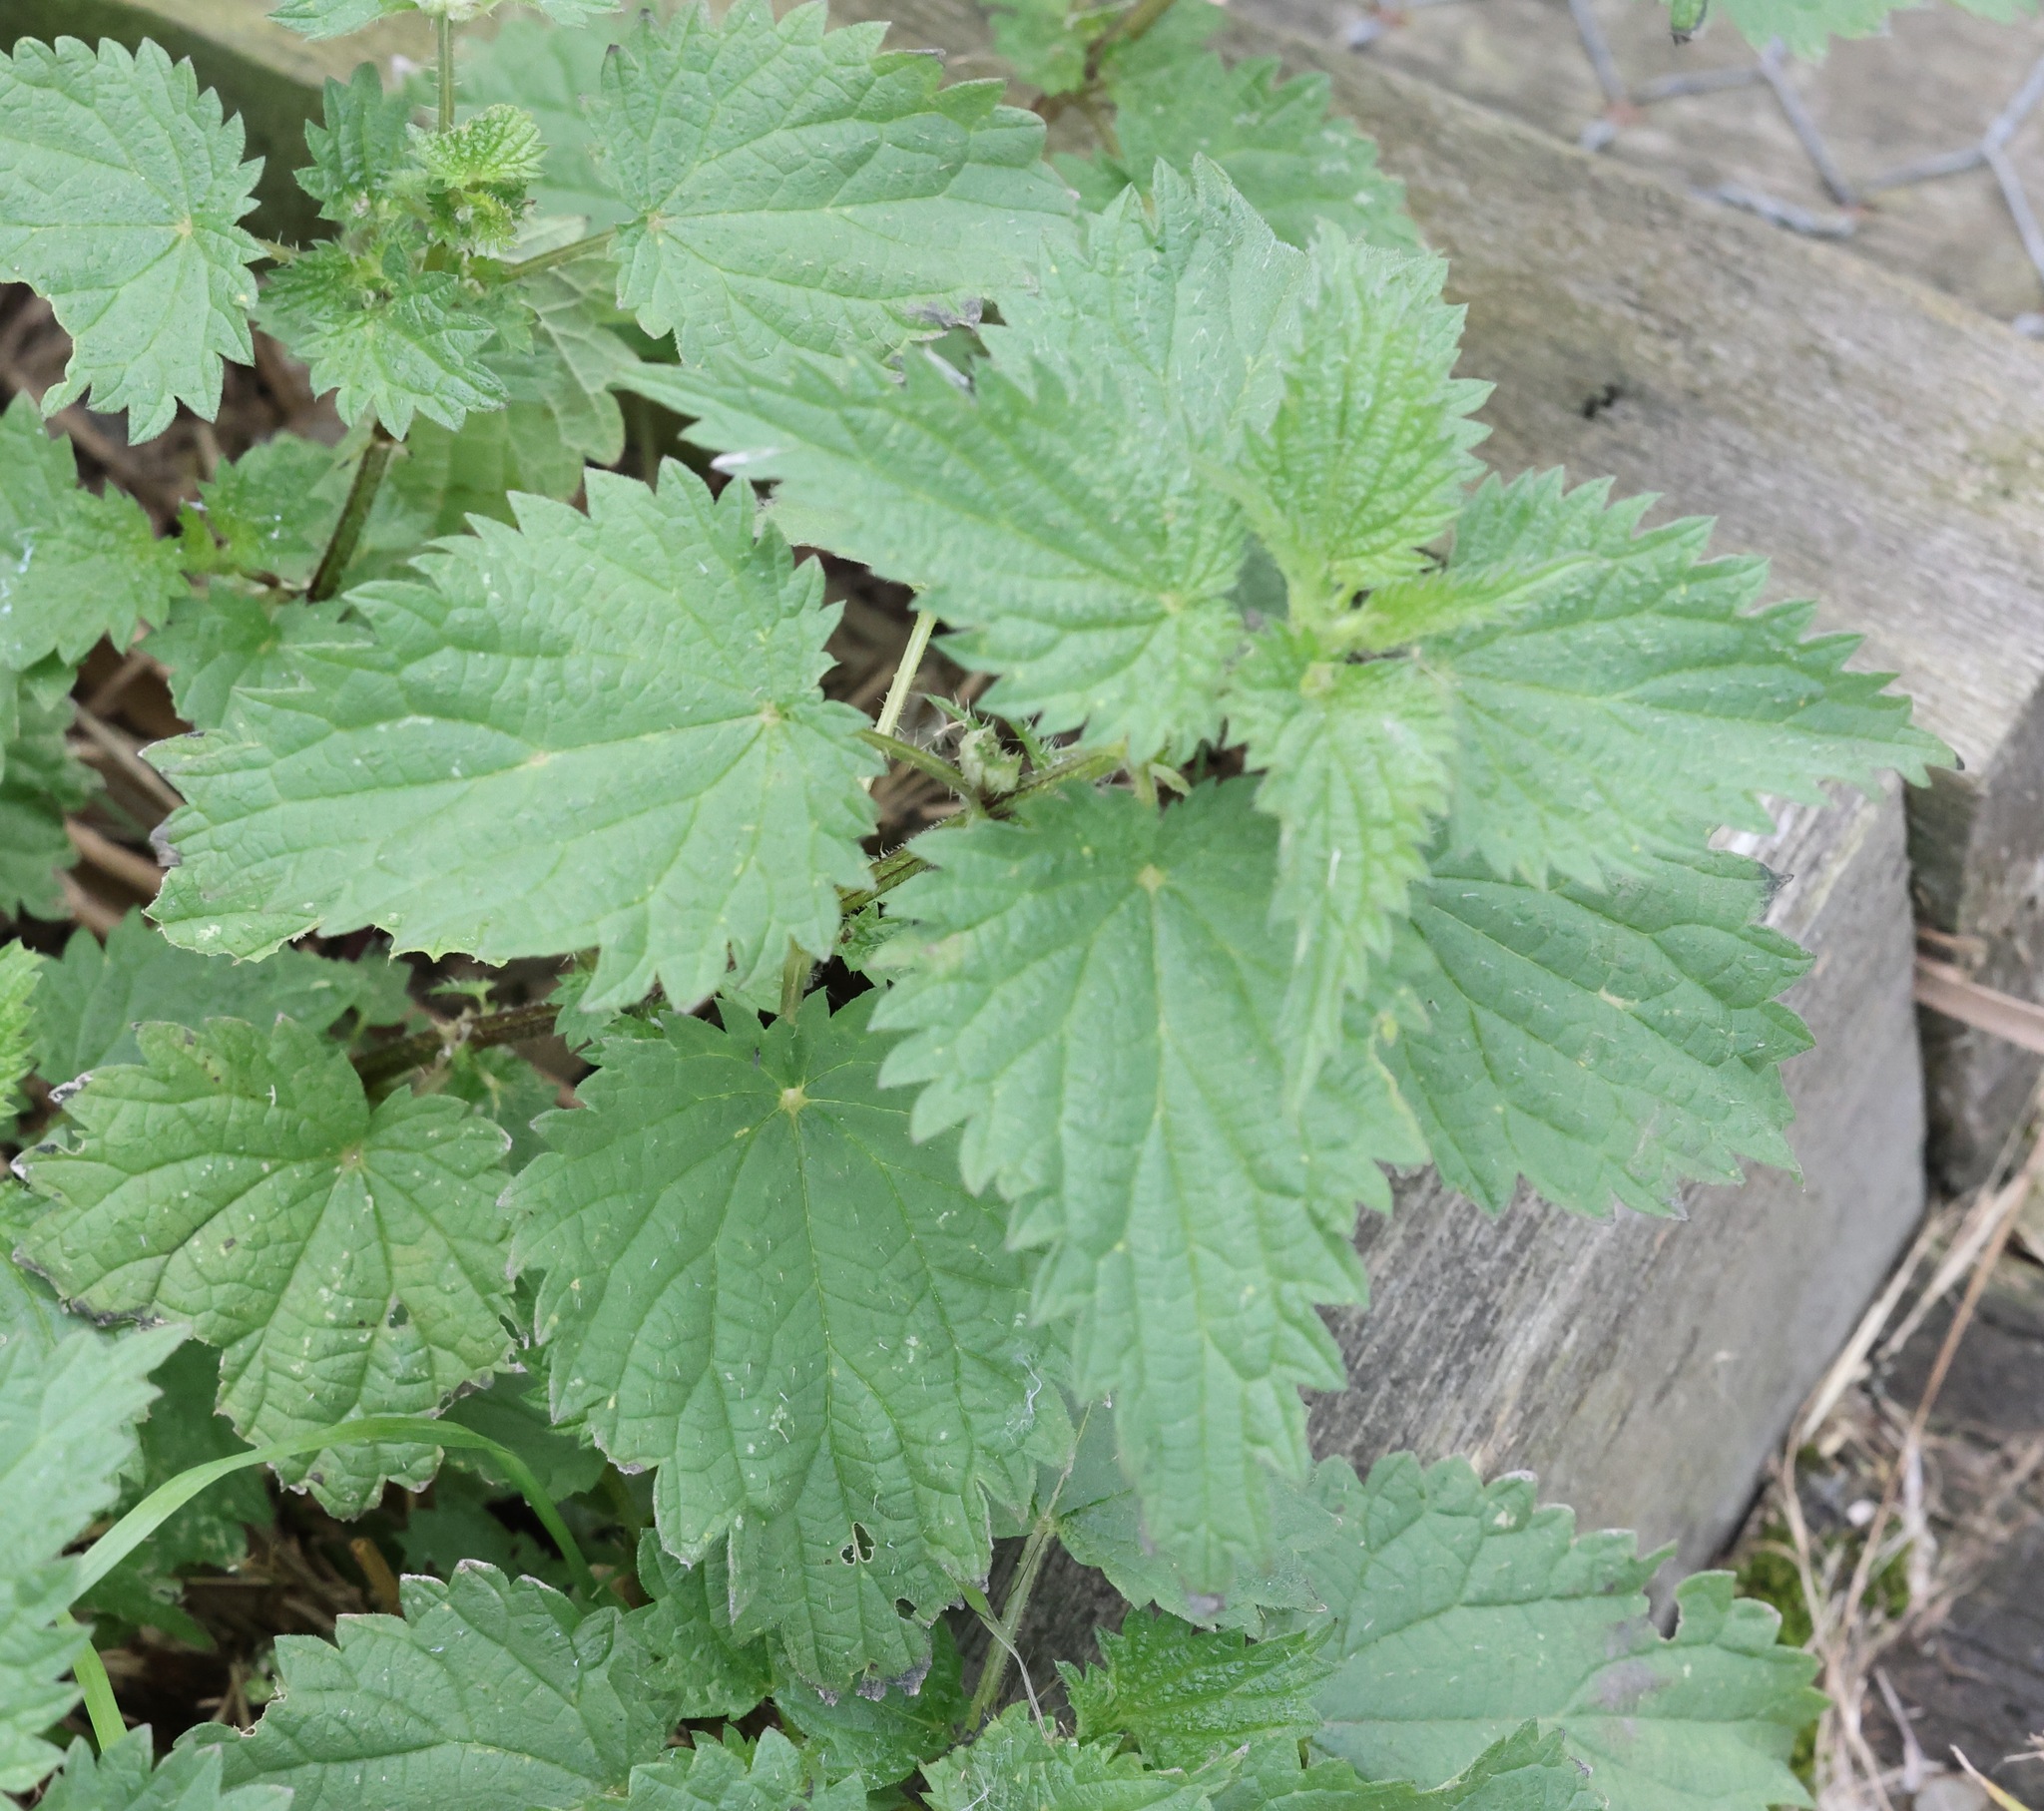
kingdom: Plantae
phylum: Tracheophyta
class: Magnoliopsida
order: Rosales
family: Urticaceae
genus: Urtica
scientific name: Urtica dioica
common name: Common nettle
